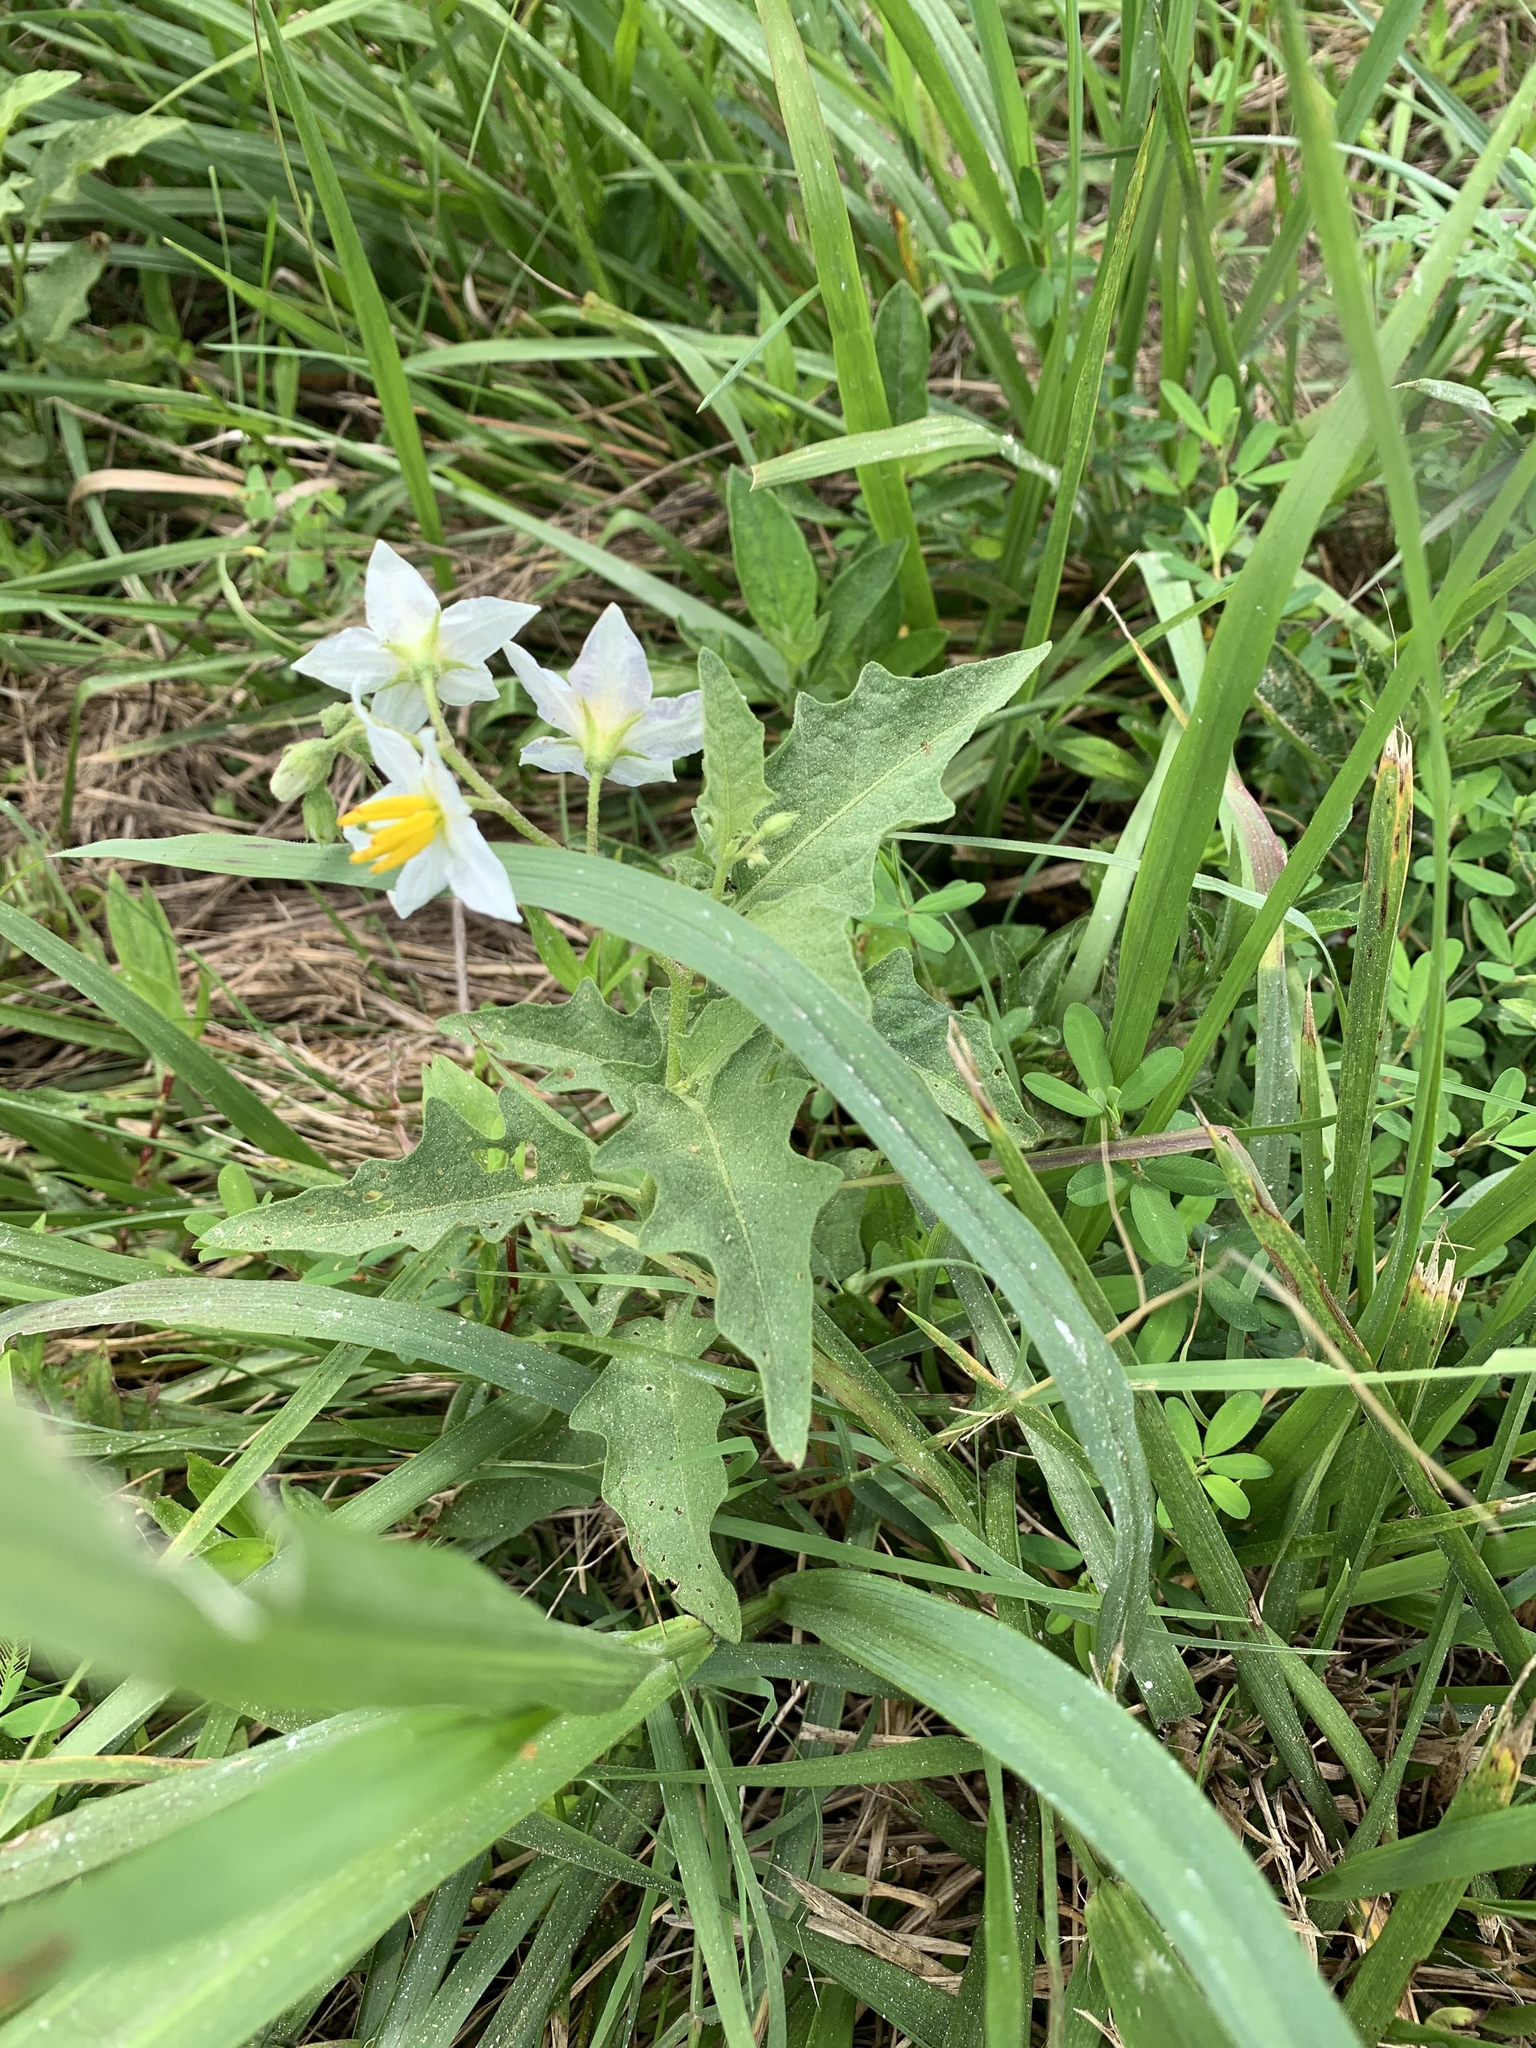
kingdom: Plantae
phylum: Tracheophyta
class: Magnoliopsida
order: Solanales
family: Solanaceae
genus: Solanum
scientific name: Solanum carolinense
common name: Horse-nettle
